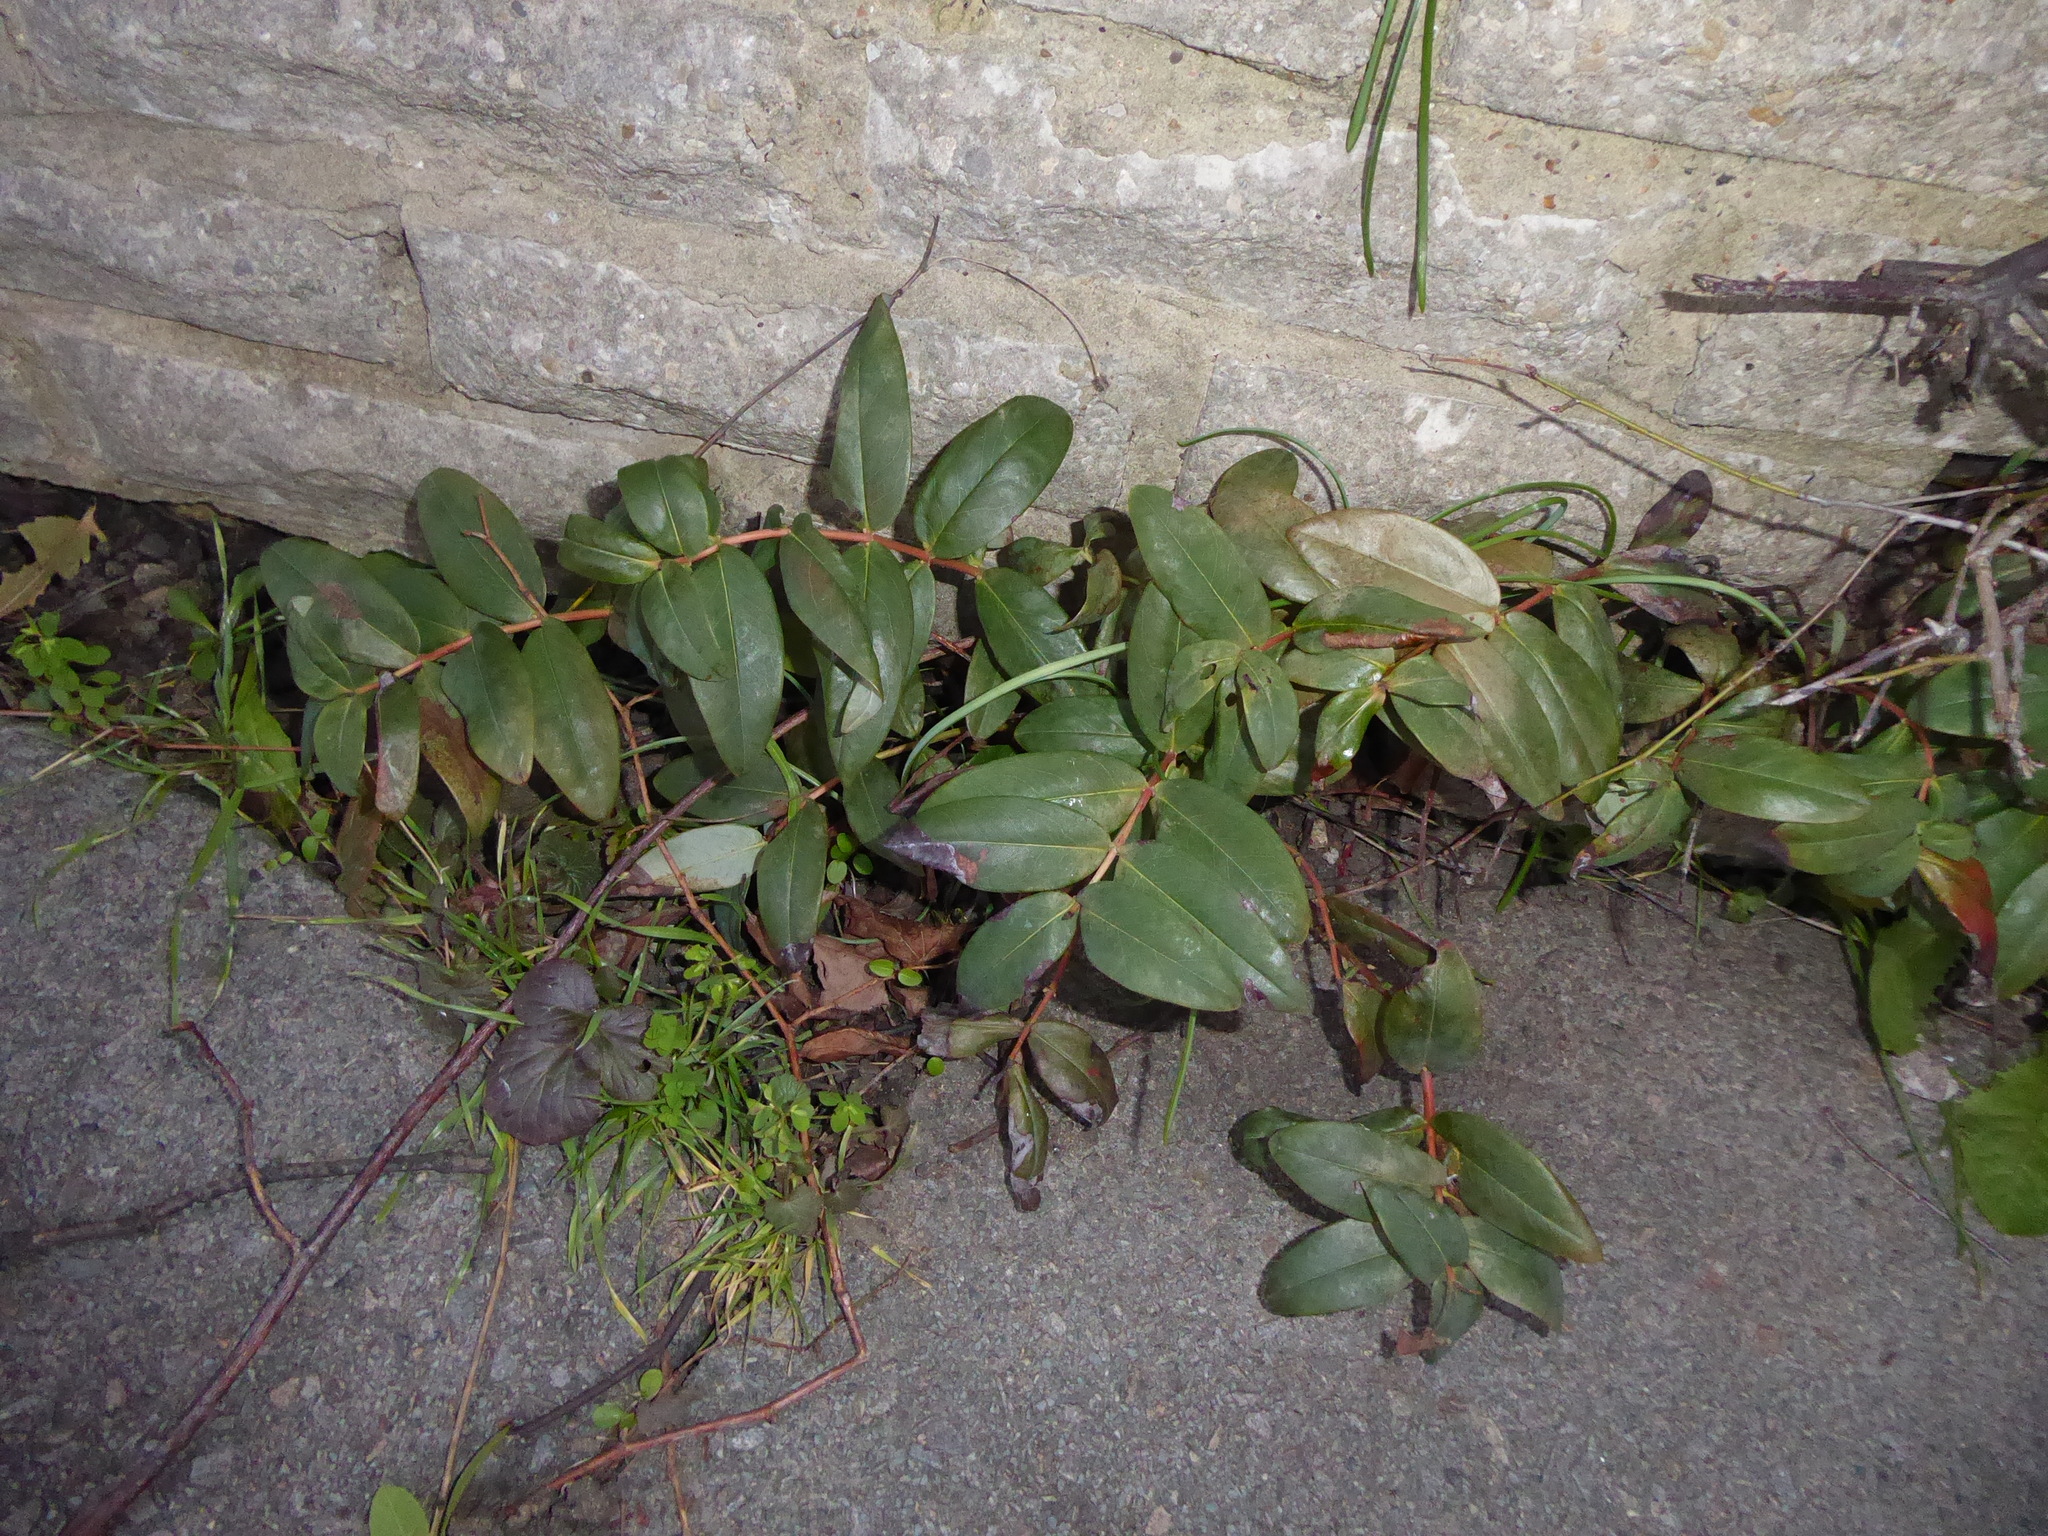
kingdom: Plantae
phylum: Tracheophyta
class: Magnoliopsida
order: Malpighiales
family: Hypericaceae
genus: Hypericum
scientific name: Hypericum calycinum
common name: Rose-of-sharon
